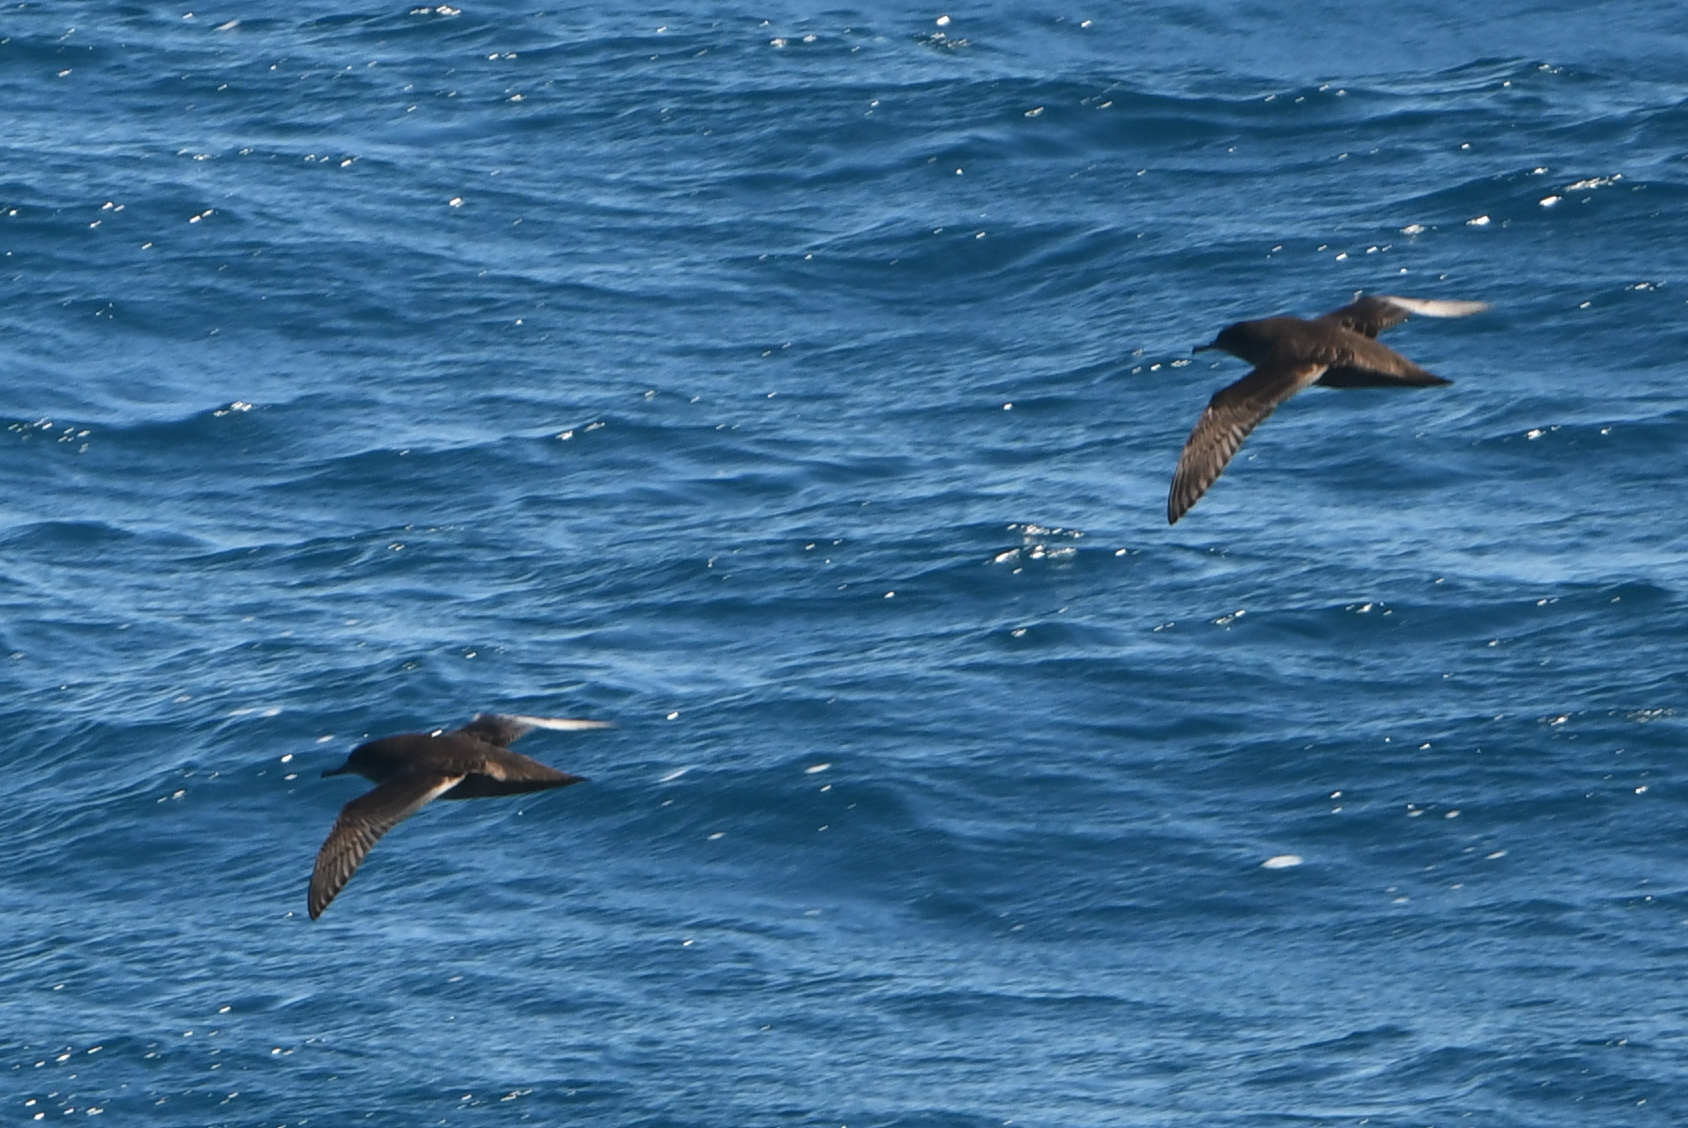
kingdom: Animalia
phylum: Chordata
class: Aves
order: Procellariiformes
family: Procellariidae
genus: Puffinus
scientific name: Puffinus griseus
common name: Sooty shearwater
